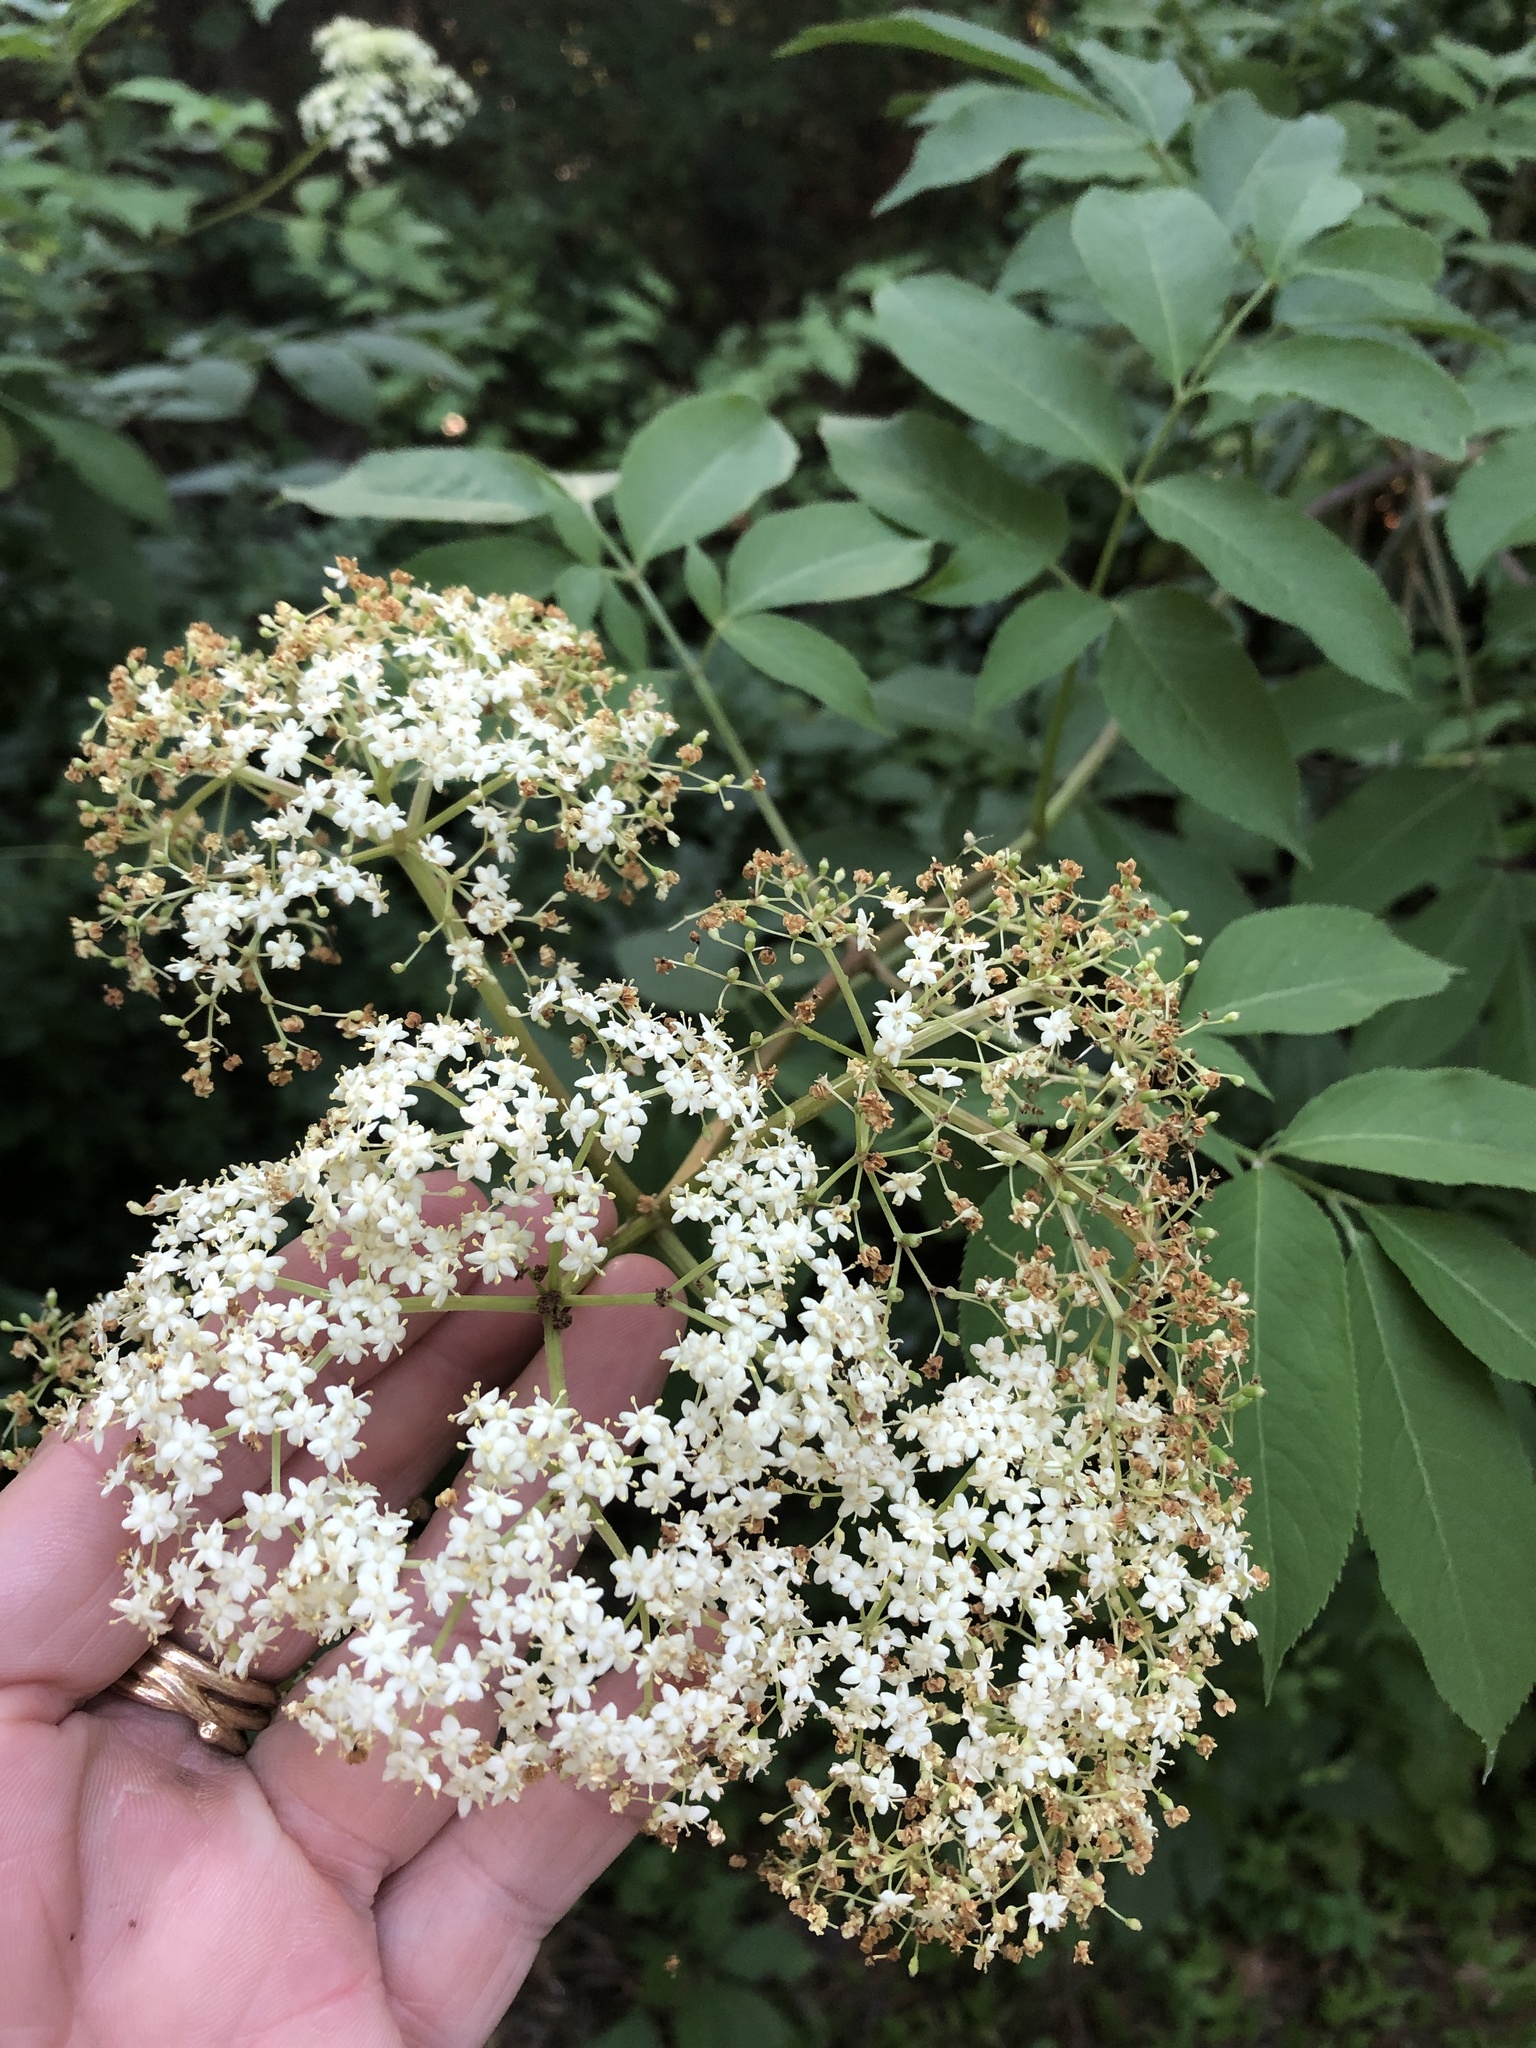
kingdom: Plantae
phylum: Tracheophyta
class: Magnoliopsida
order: Dipsacales
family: Viburnaceae
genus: Sambucus
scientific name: Sambucus canadensis
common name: American elder
